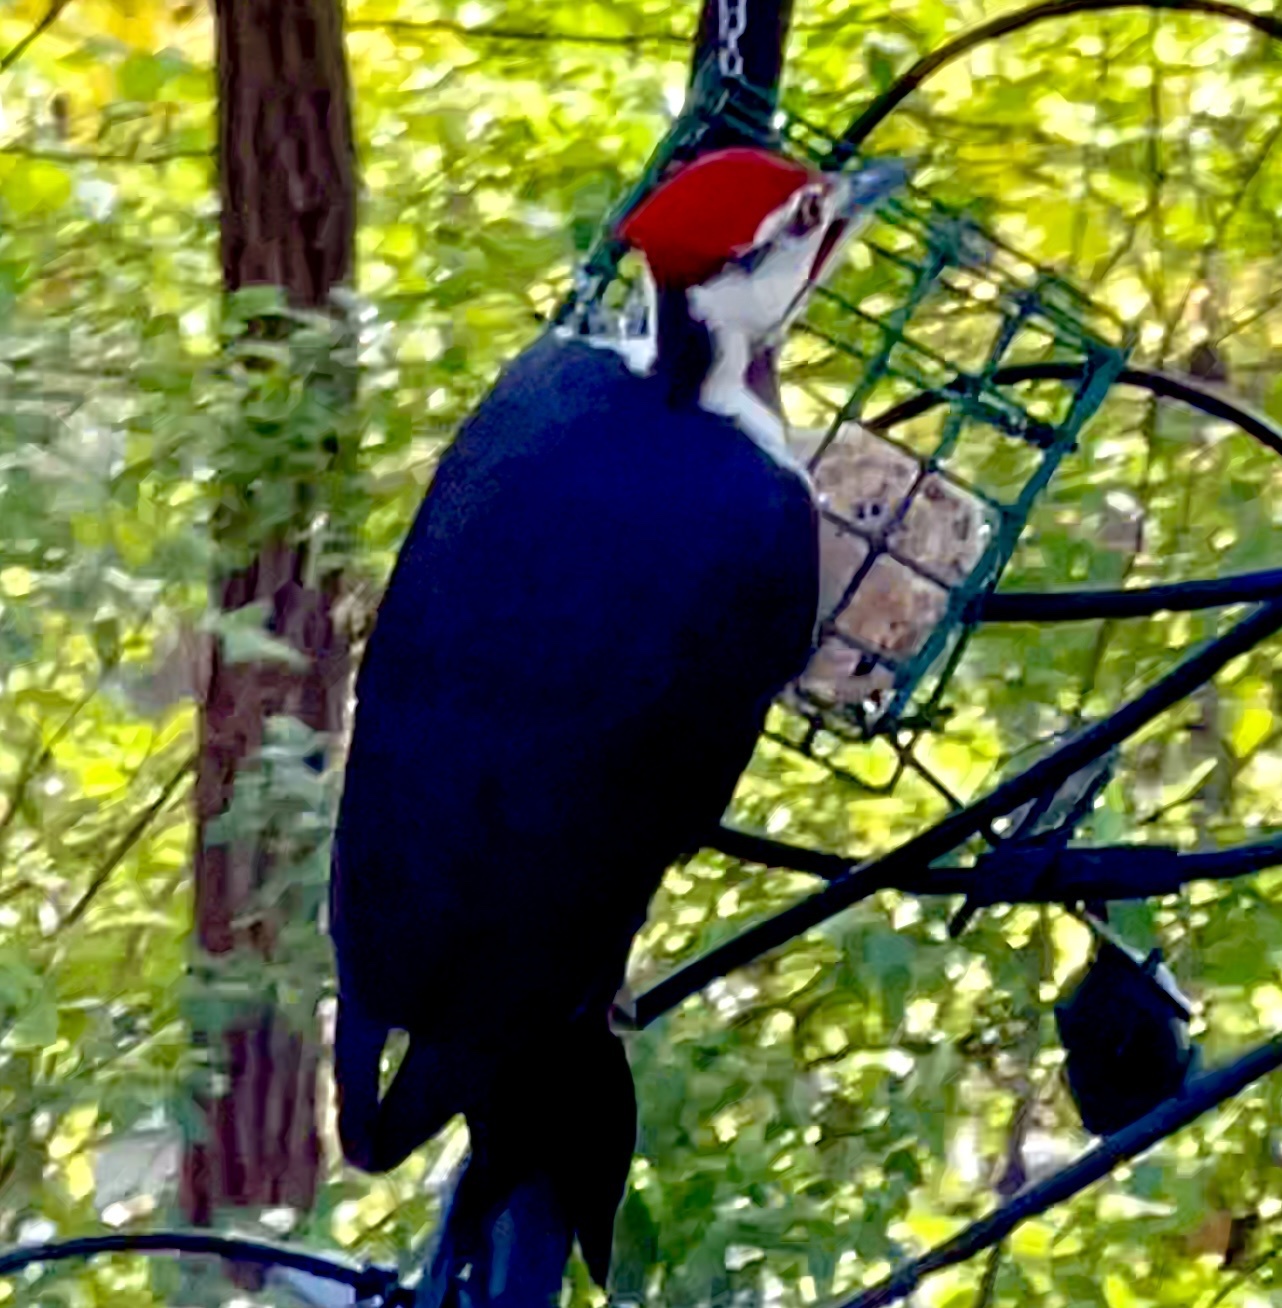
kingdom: Animalia
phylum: Chordata
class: Aves
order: Piciformes
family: Picidae
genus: Dryocopus
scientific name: Dryocopus pileatus
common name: Pileated woodpecker
